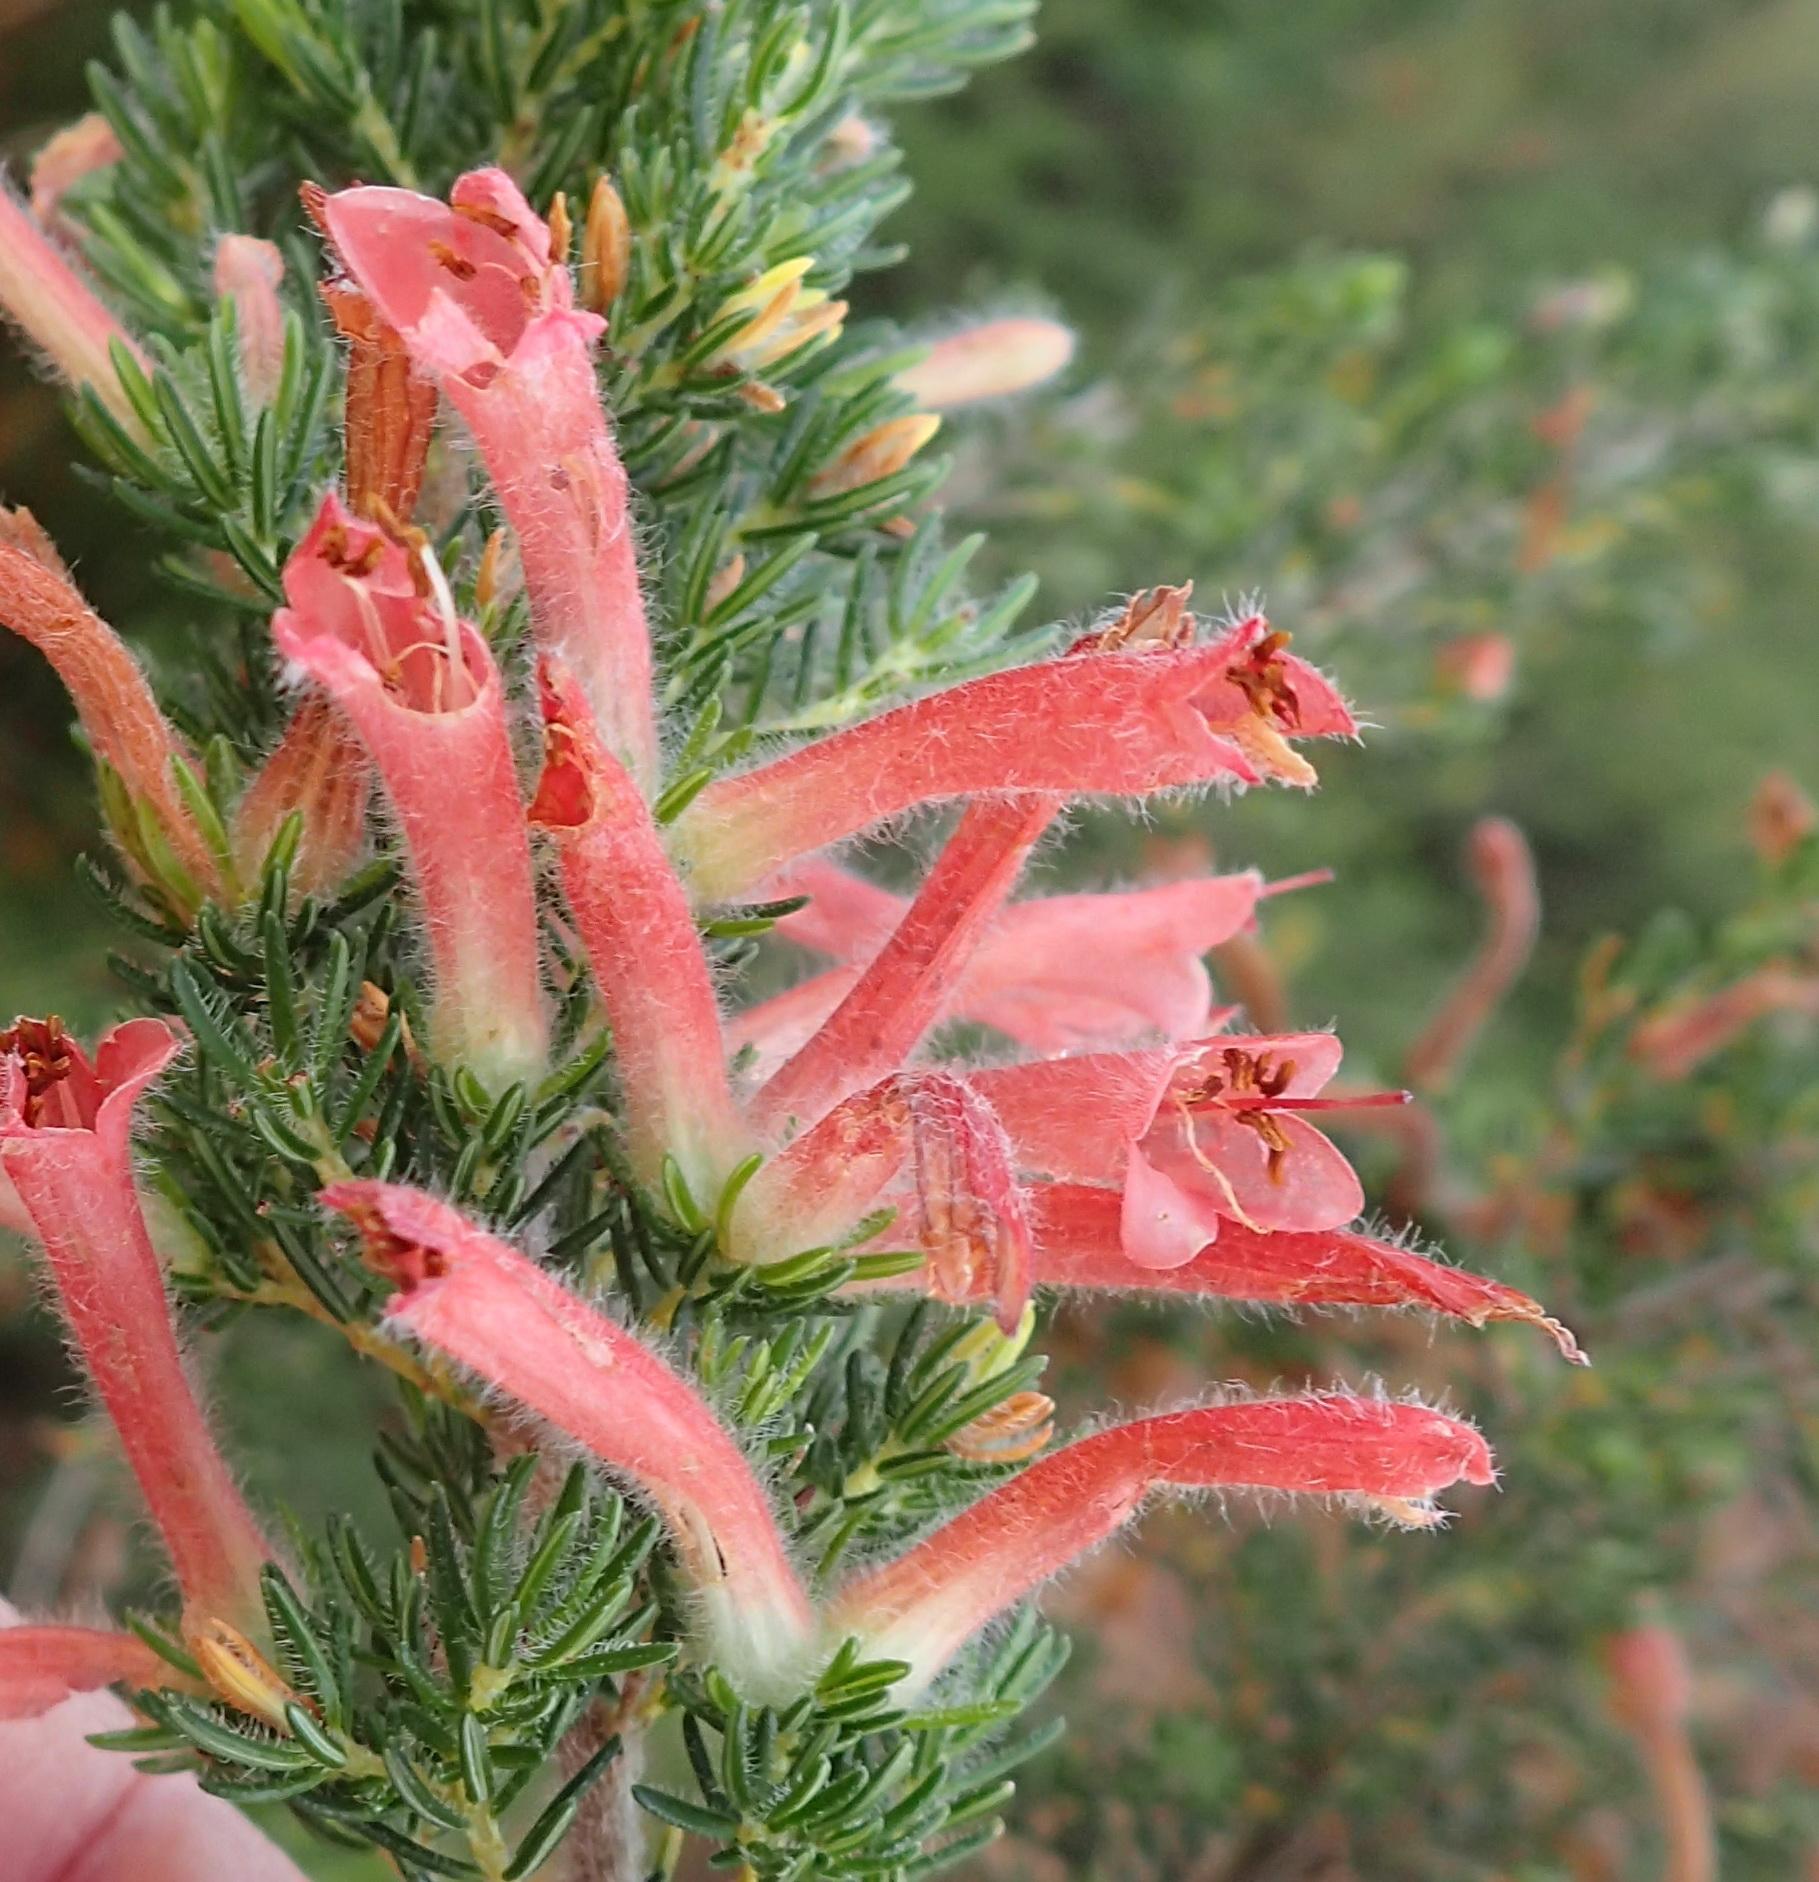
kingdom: Plantae
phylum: Tracheophyta
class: Magnoliopsida
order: Ericales
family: Ericaceae
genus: Erica
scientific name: Erica curviflora
